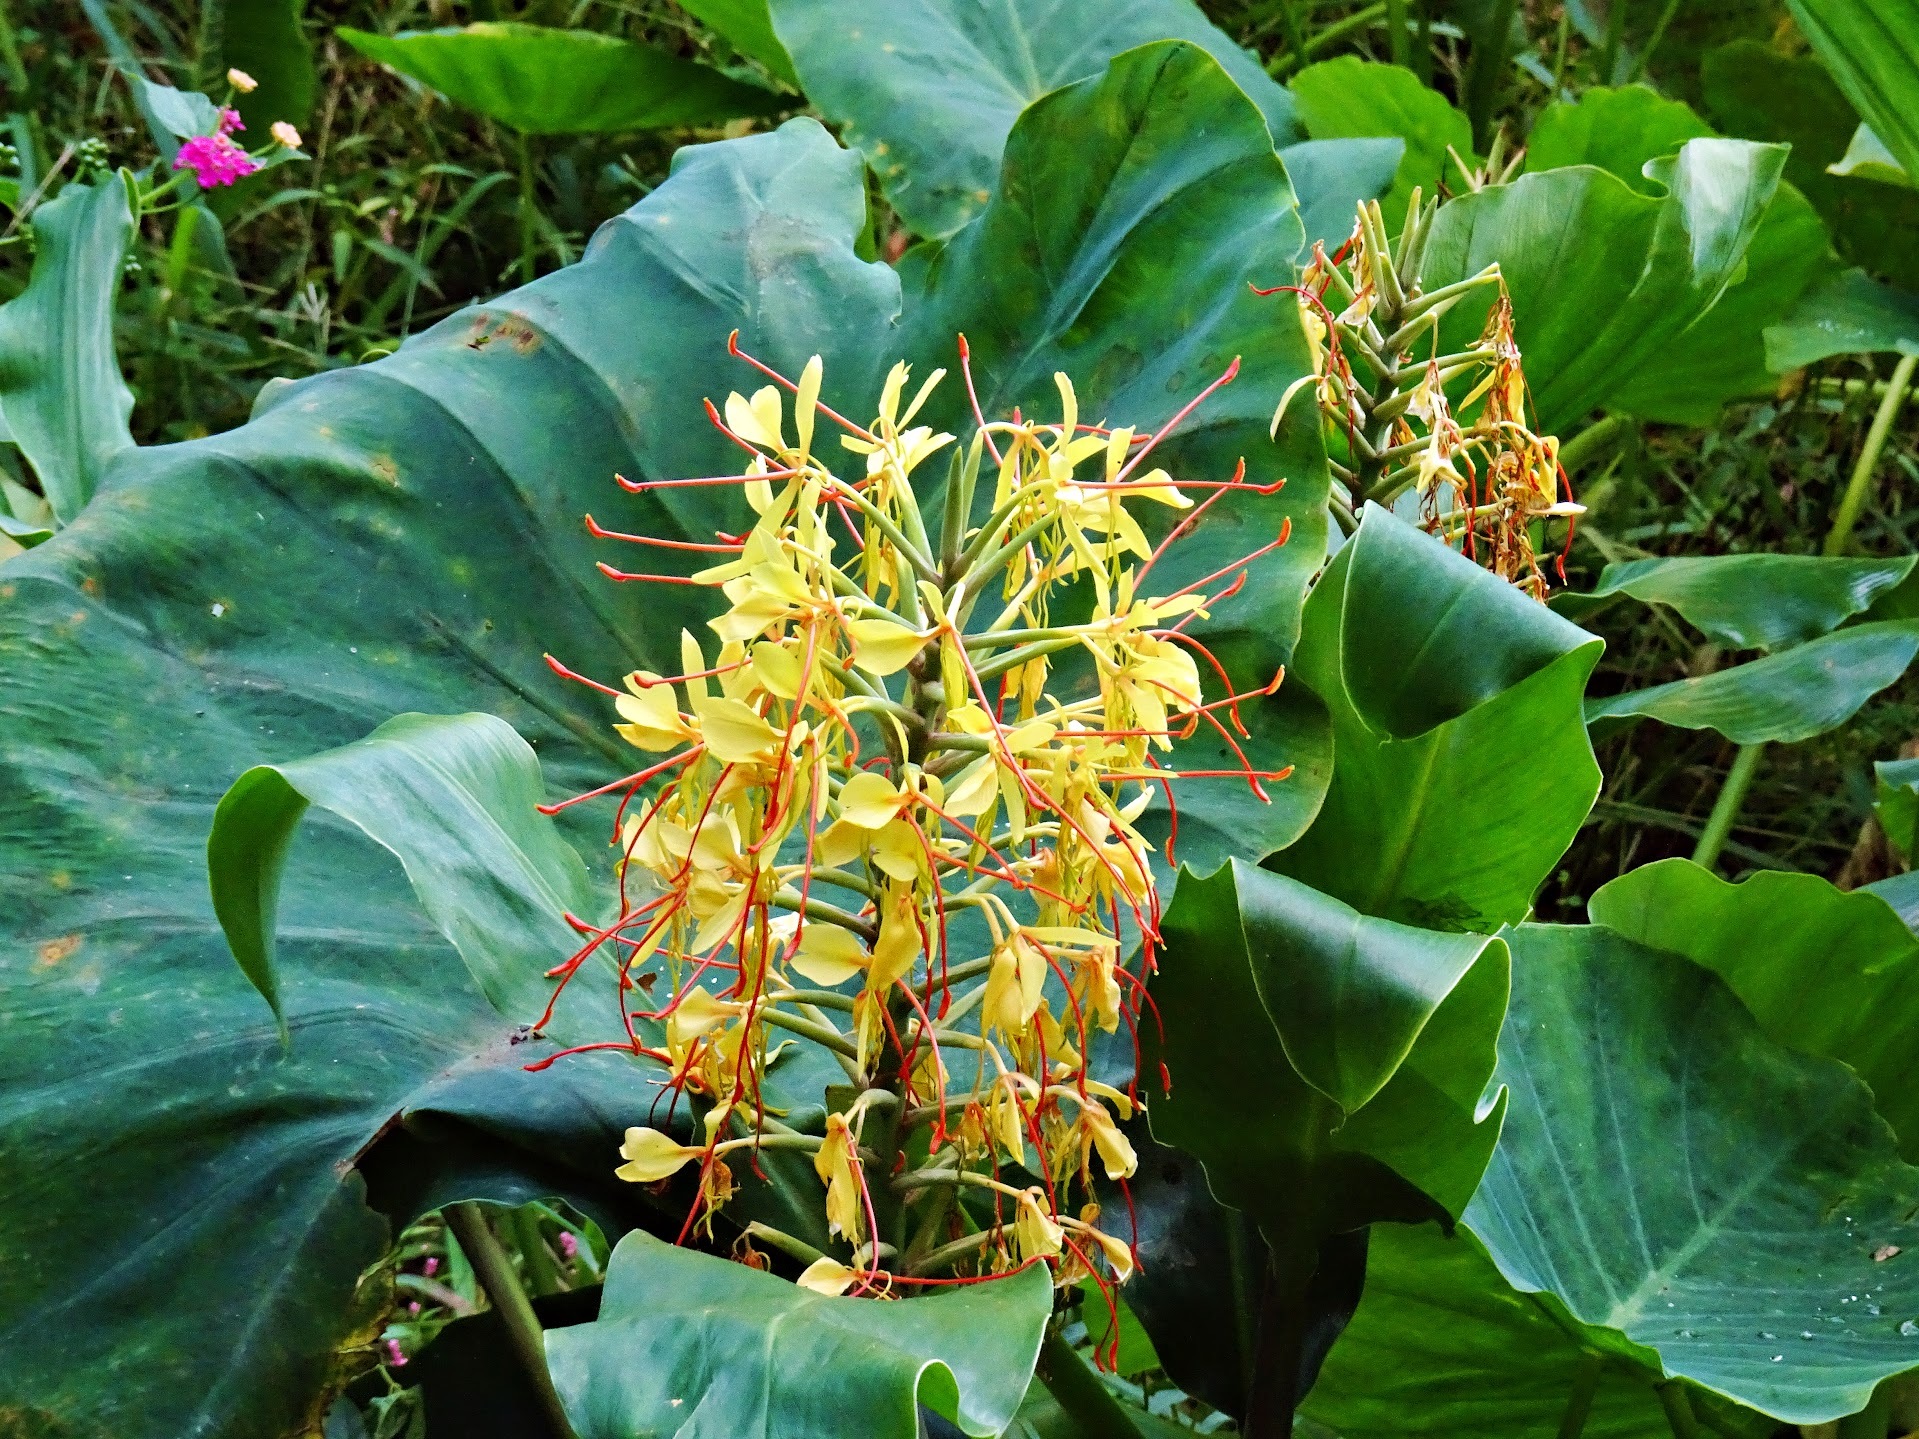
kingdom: Plantae
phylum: Tracheophyta
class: Liliopsida
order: Zingiberales
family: Zingiberaceae
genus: Hedychium
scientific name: Hedychium gardnerianum
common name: Himalayan ginger
